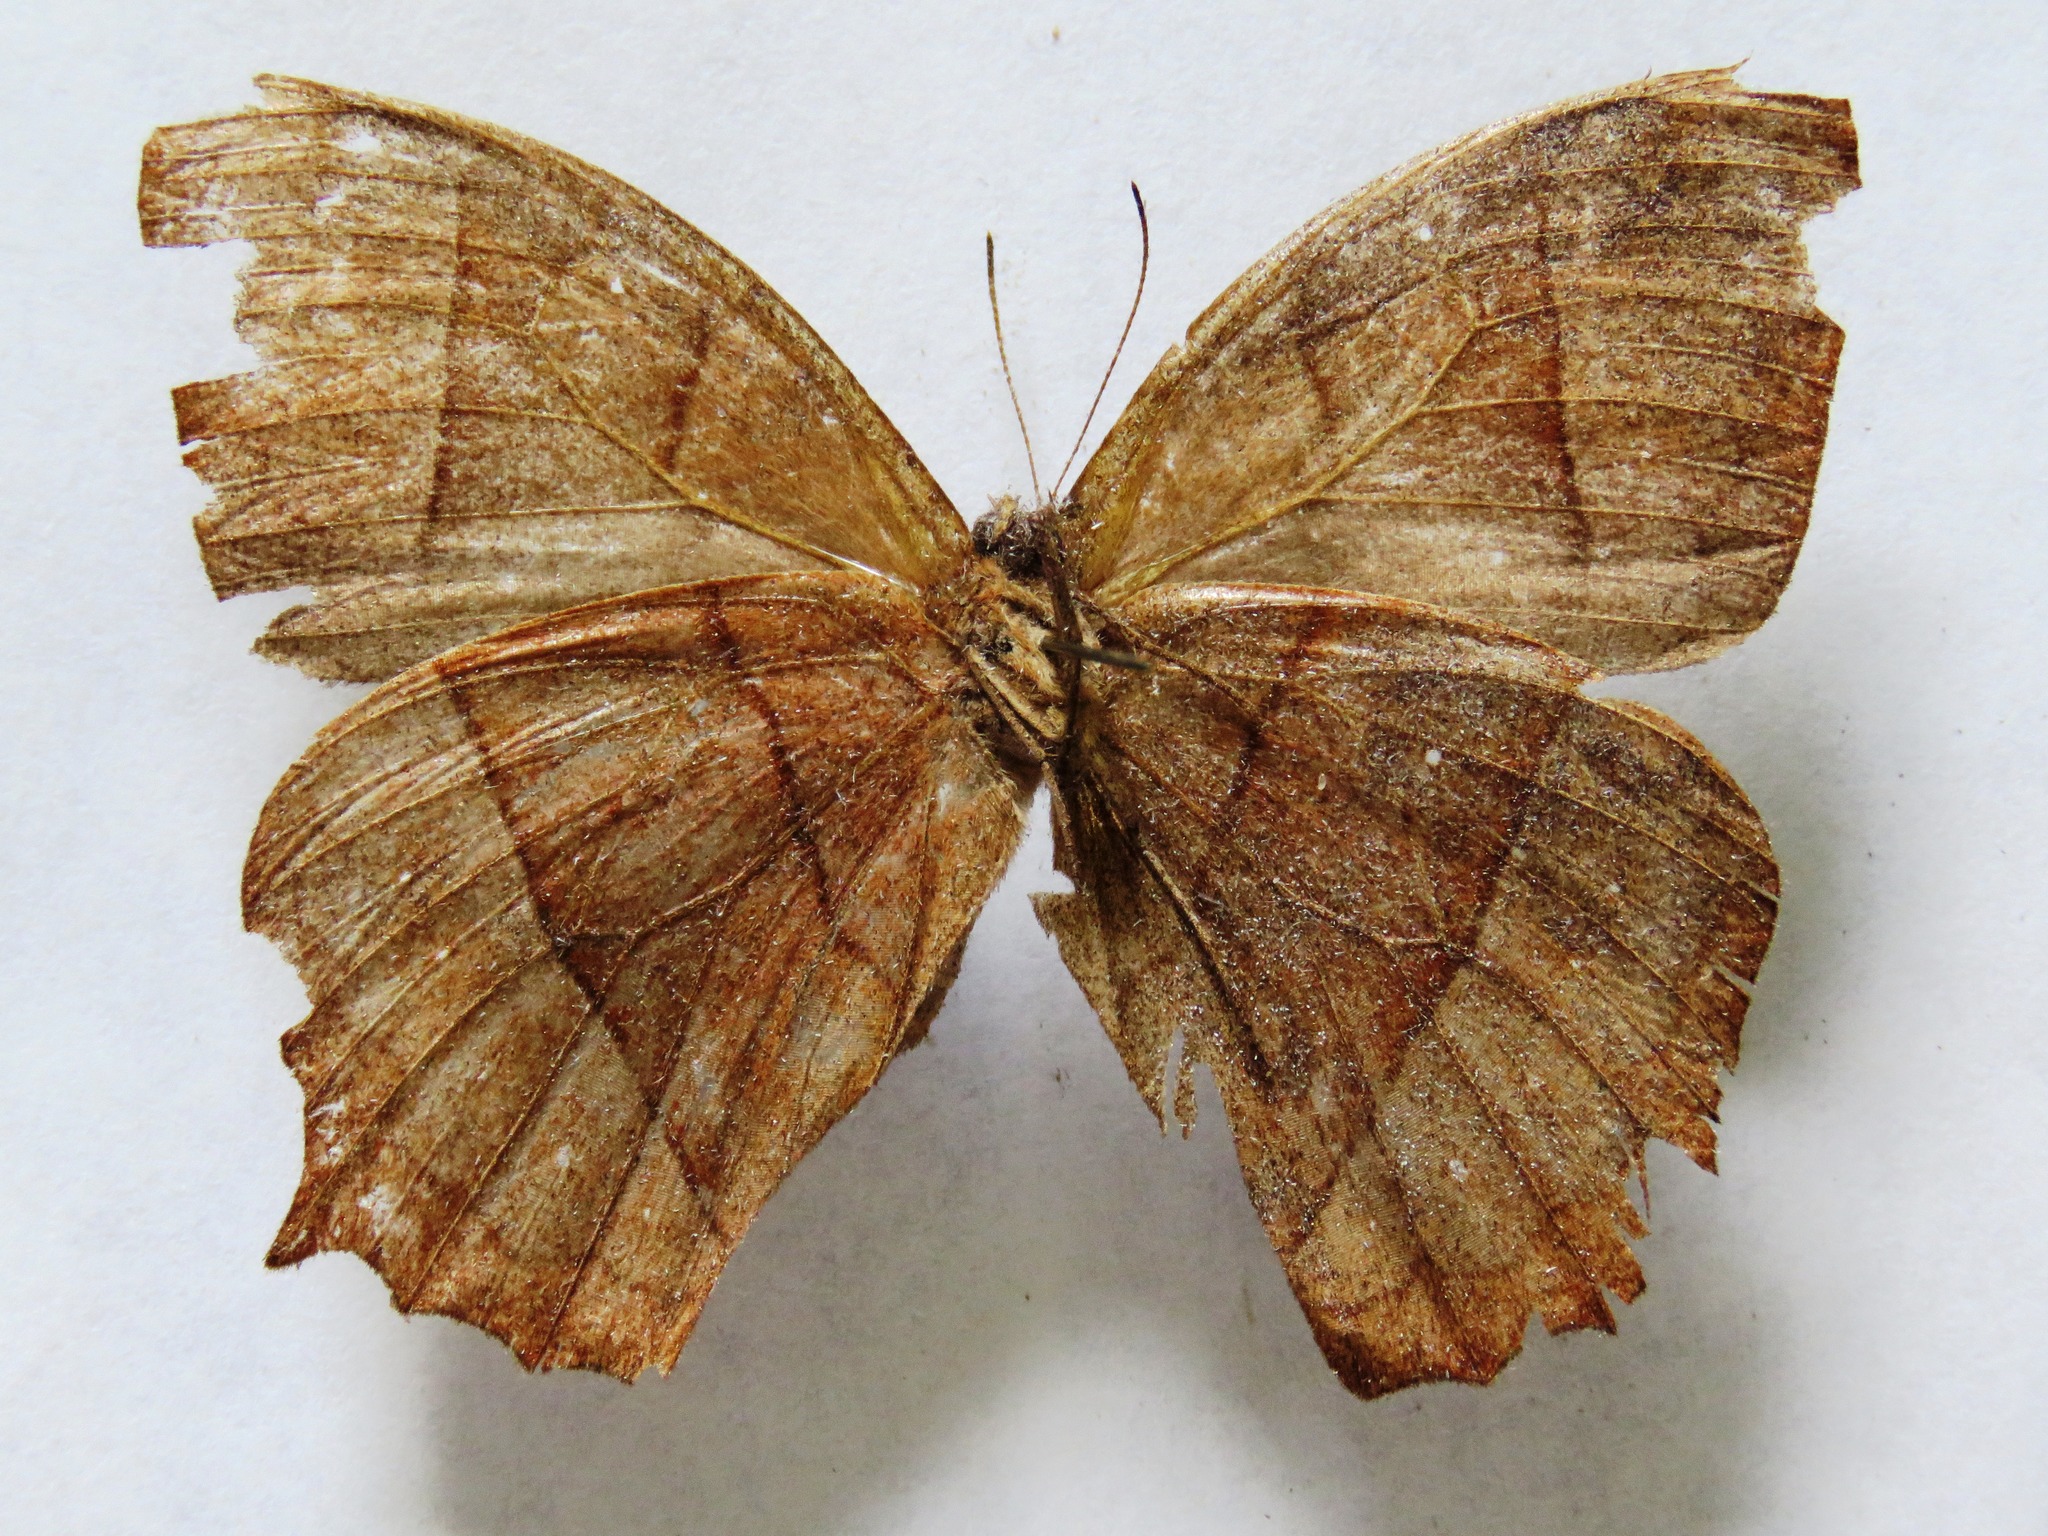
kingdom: Animalia
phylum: Arthropoda
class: Insecta
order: Lepidoptera
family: Nymphalidae
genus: Taygetis
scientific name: Taygetis virgilia
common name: Stub-tailed satyr
